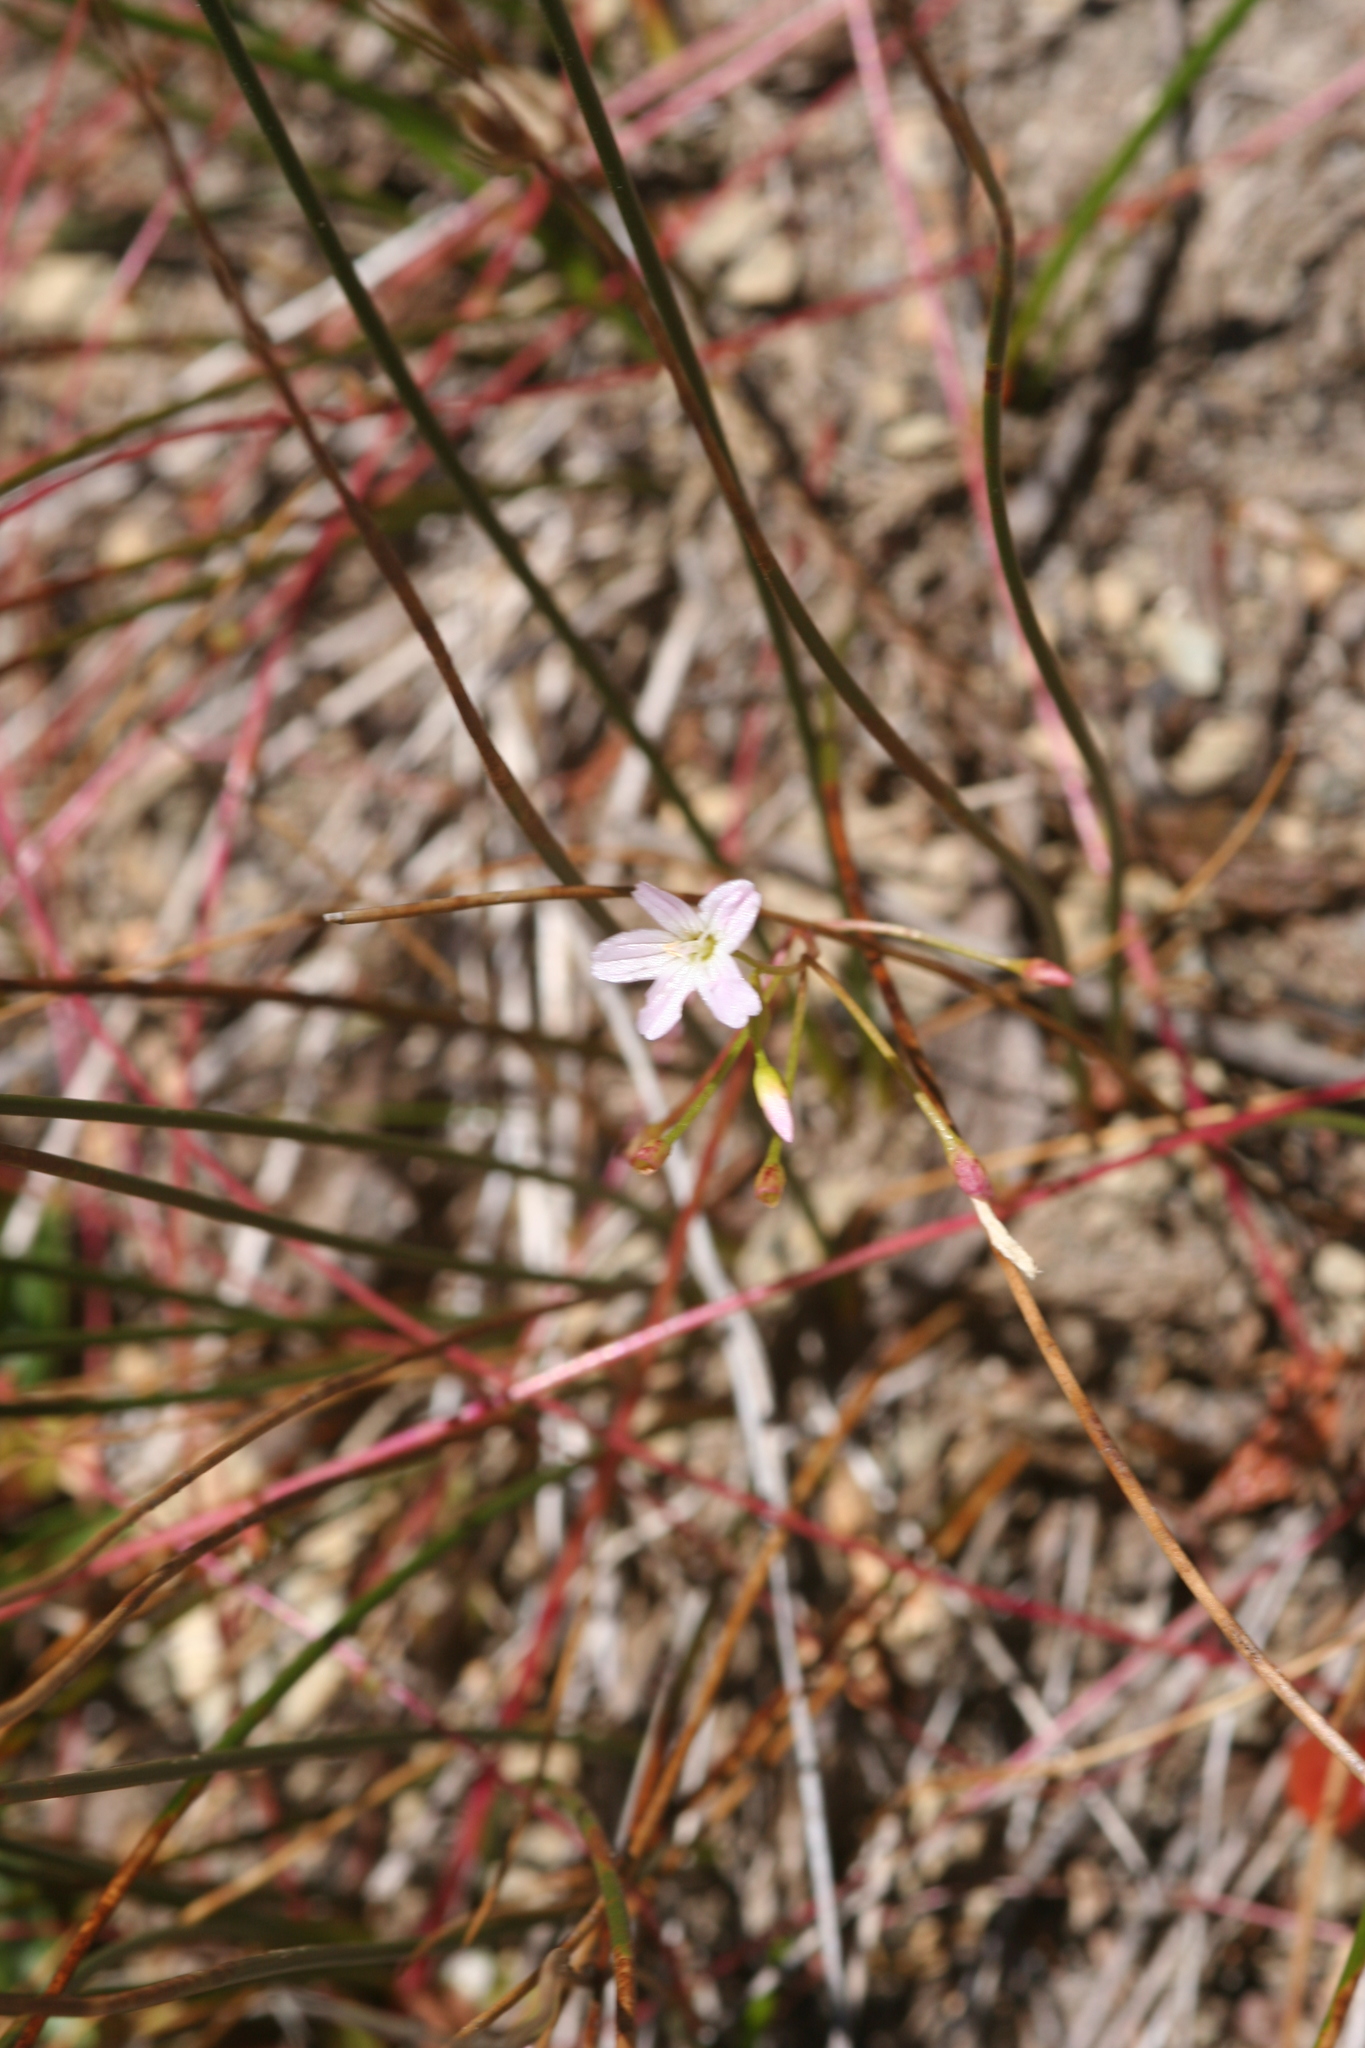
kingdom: Plantae
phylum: Tracheophyta
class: Magnoliopsida
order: Caryophyllales
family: Montiaceae
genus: Montia
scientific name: Montia parvifolia
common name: Small-leaved blinks
